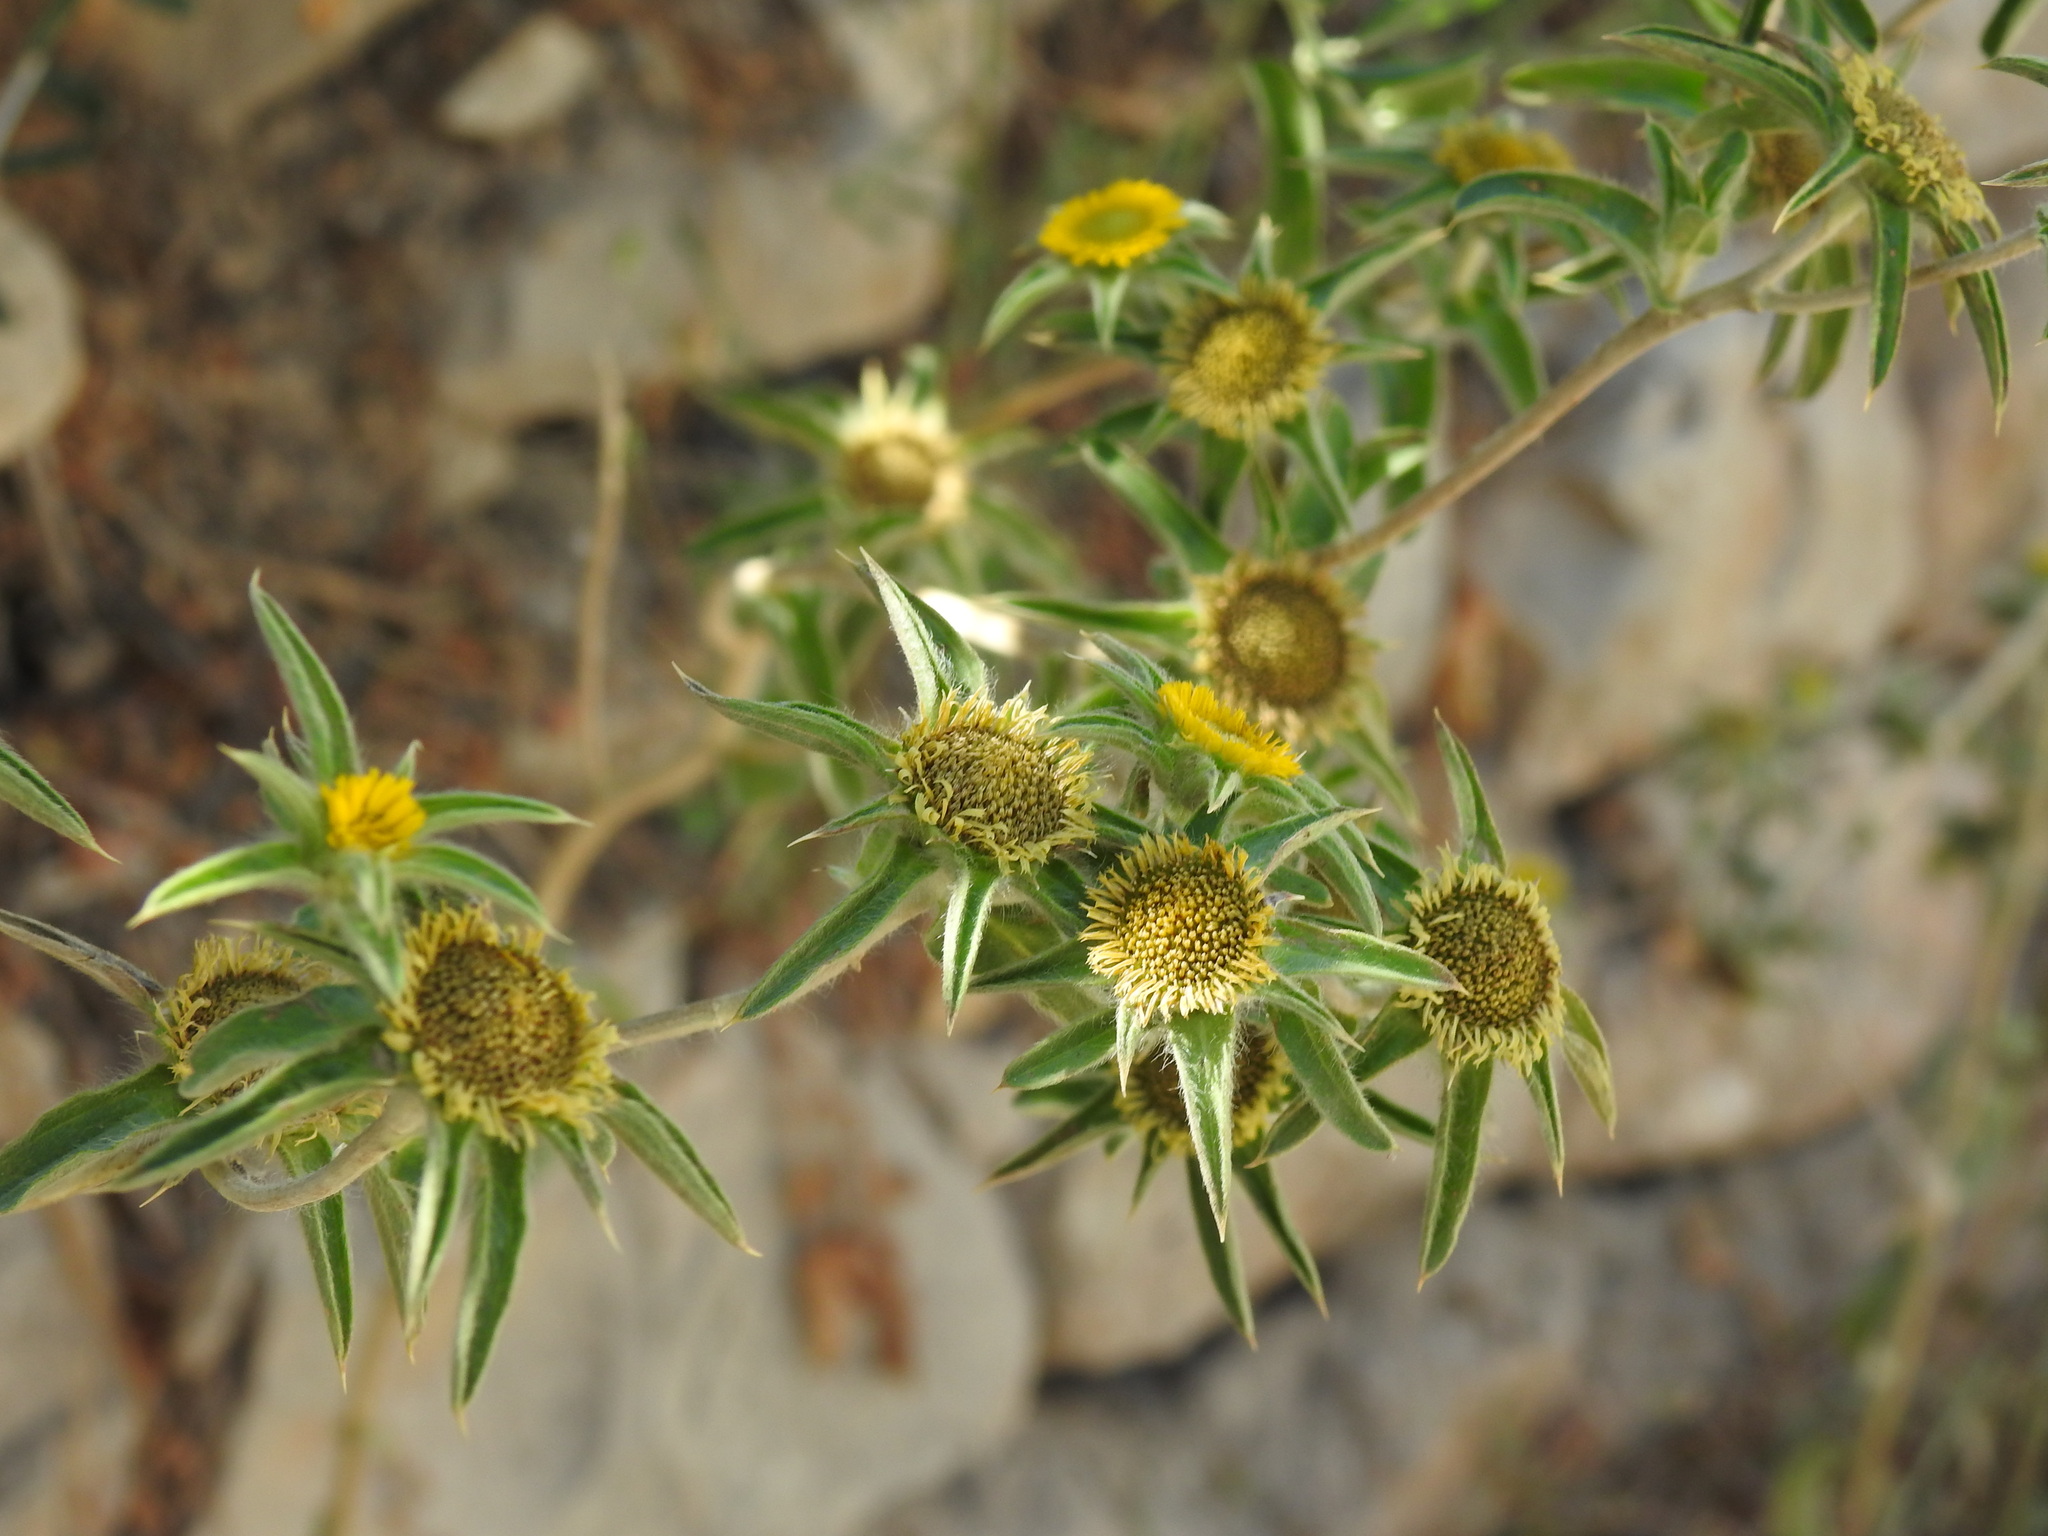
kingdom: Plantae
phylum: Tracheophyta
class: Magnoliopsida
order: Asterales
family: Asteraceae
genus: Pallenis
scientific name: Pallenis spinosa
